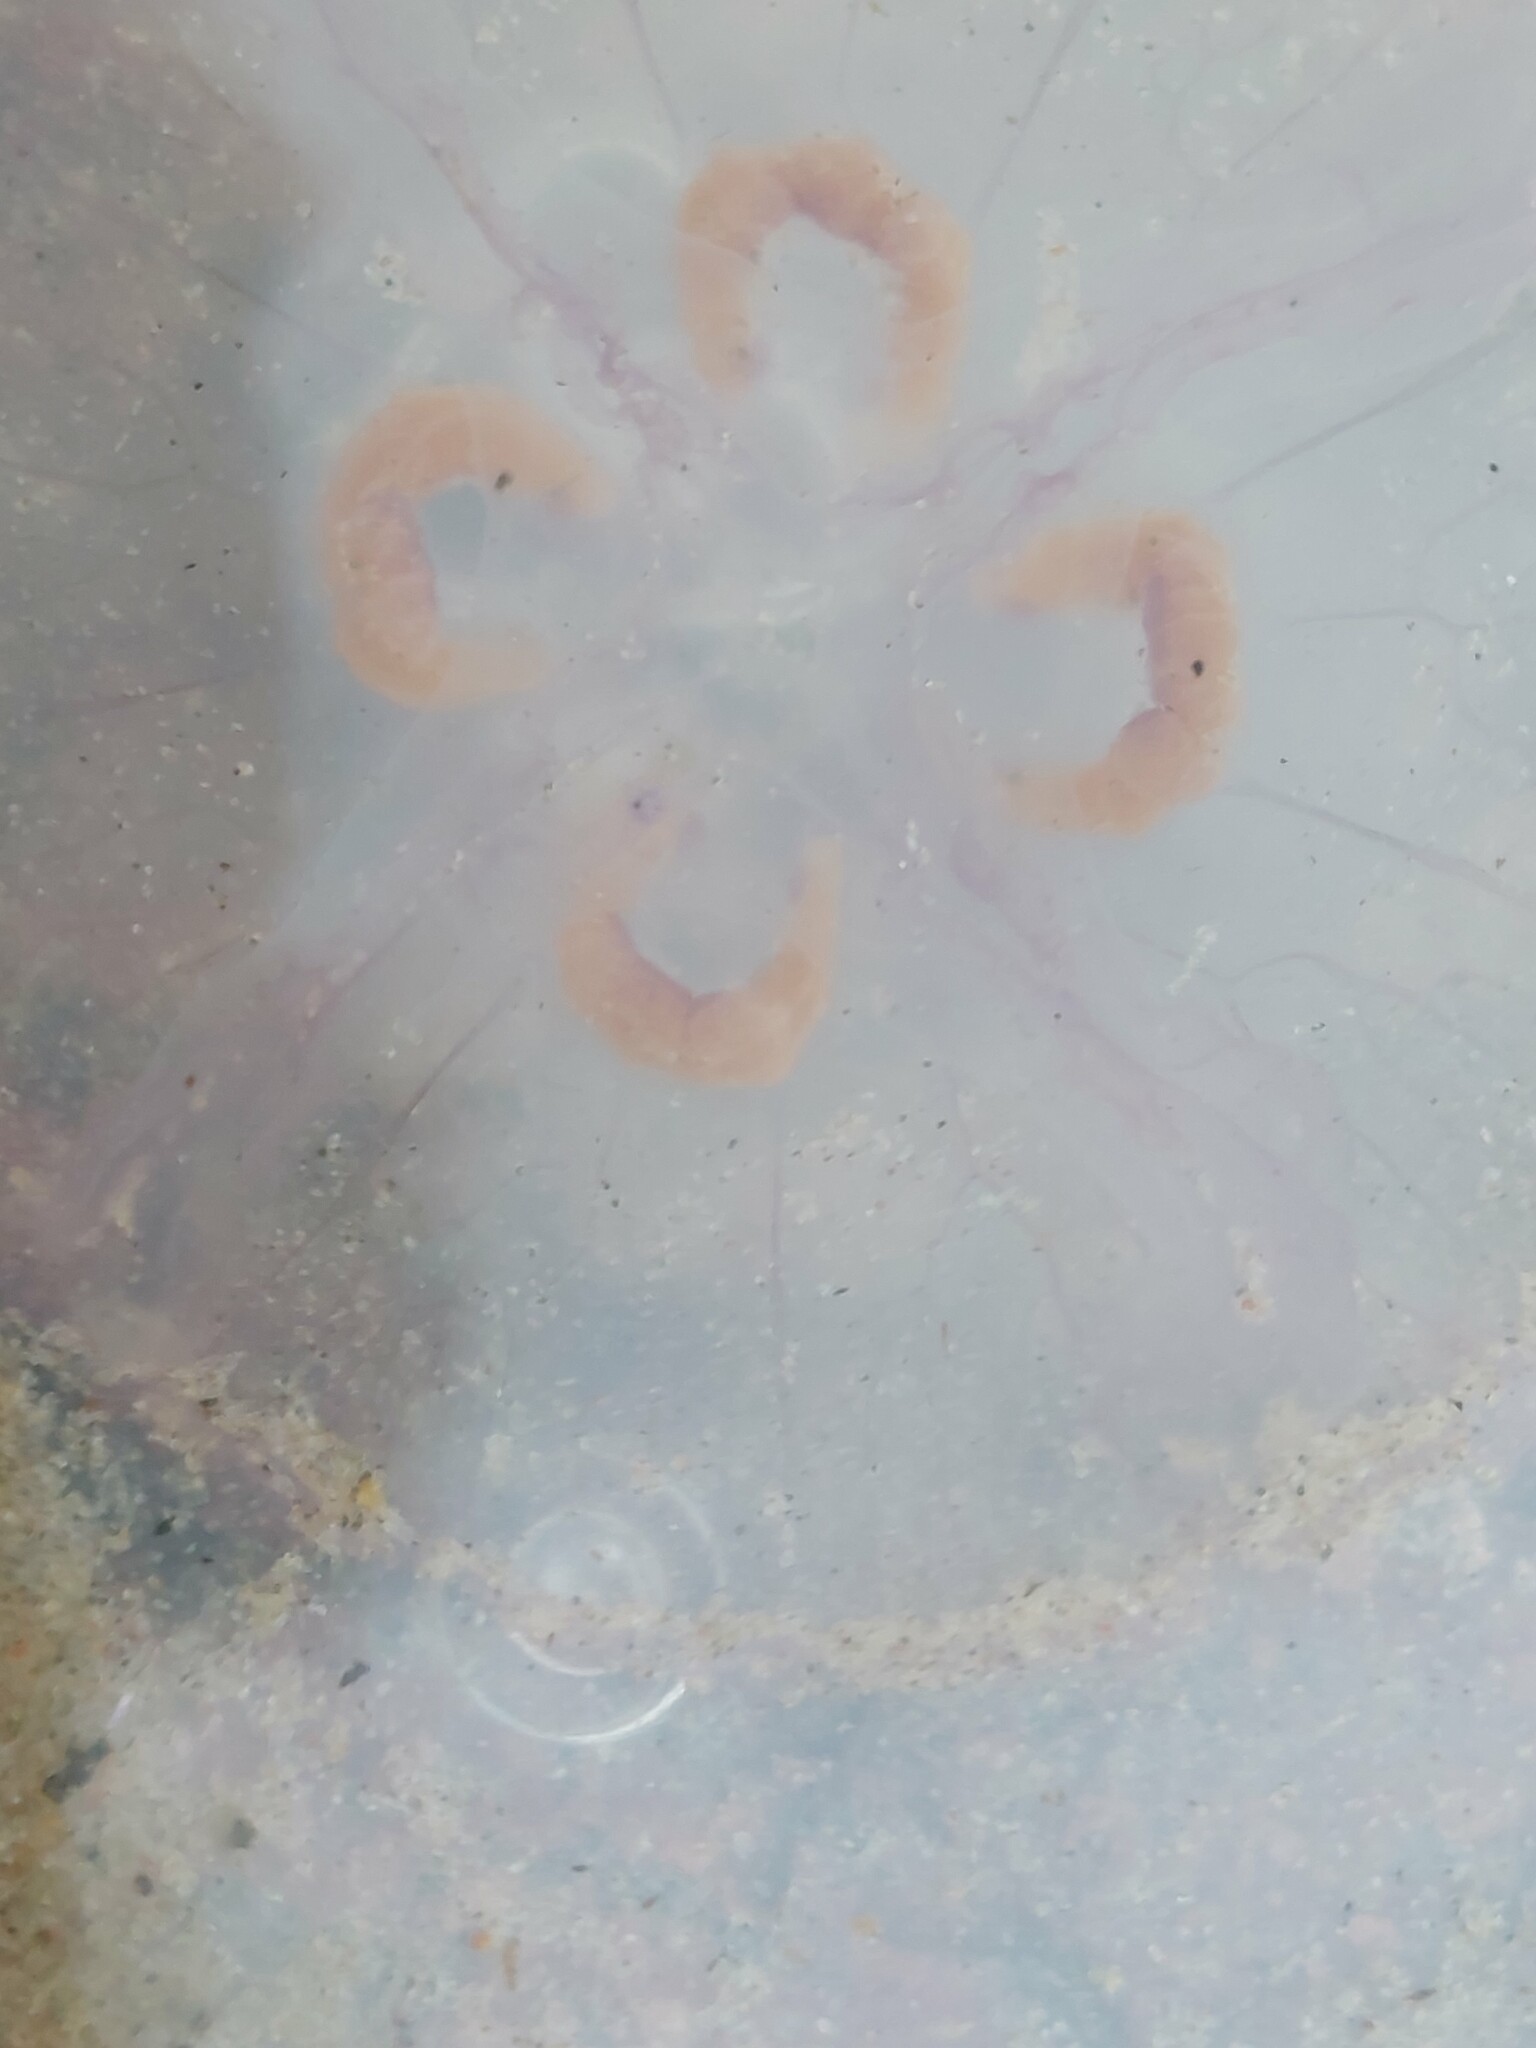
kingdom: Animalia
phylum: Cnidaria
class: Scyphozoa
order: Semaeostomeae
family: Ulmaridae
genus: Aurelia
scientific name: Aurelia aurita
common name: Moon jellyfish
